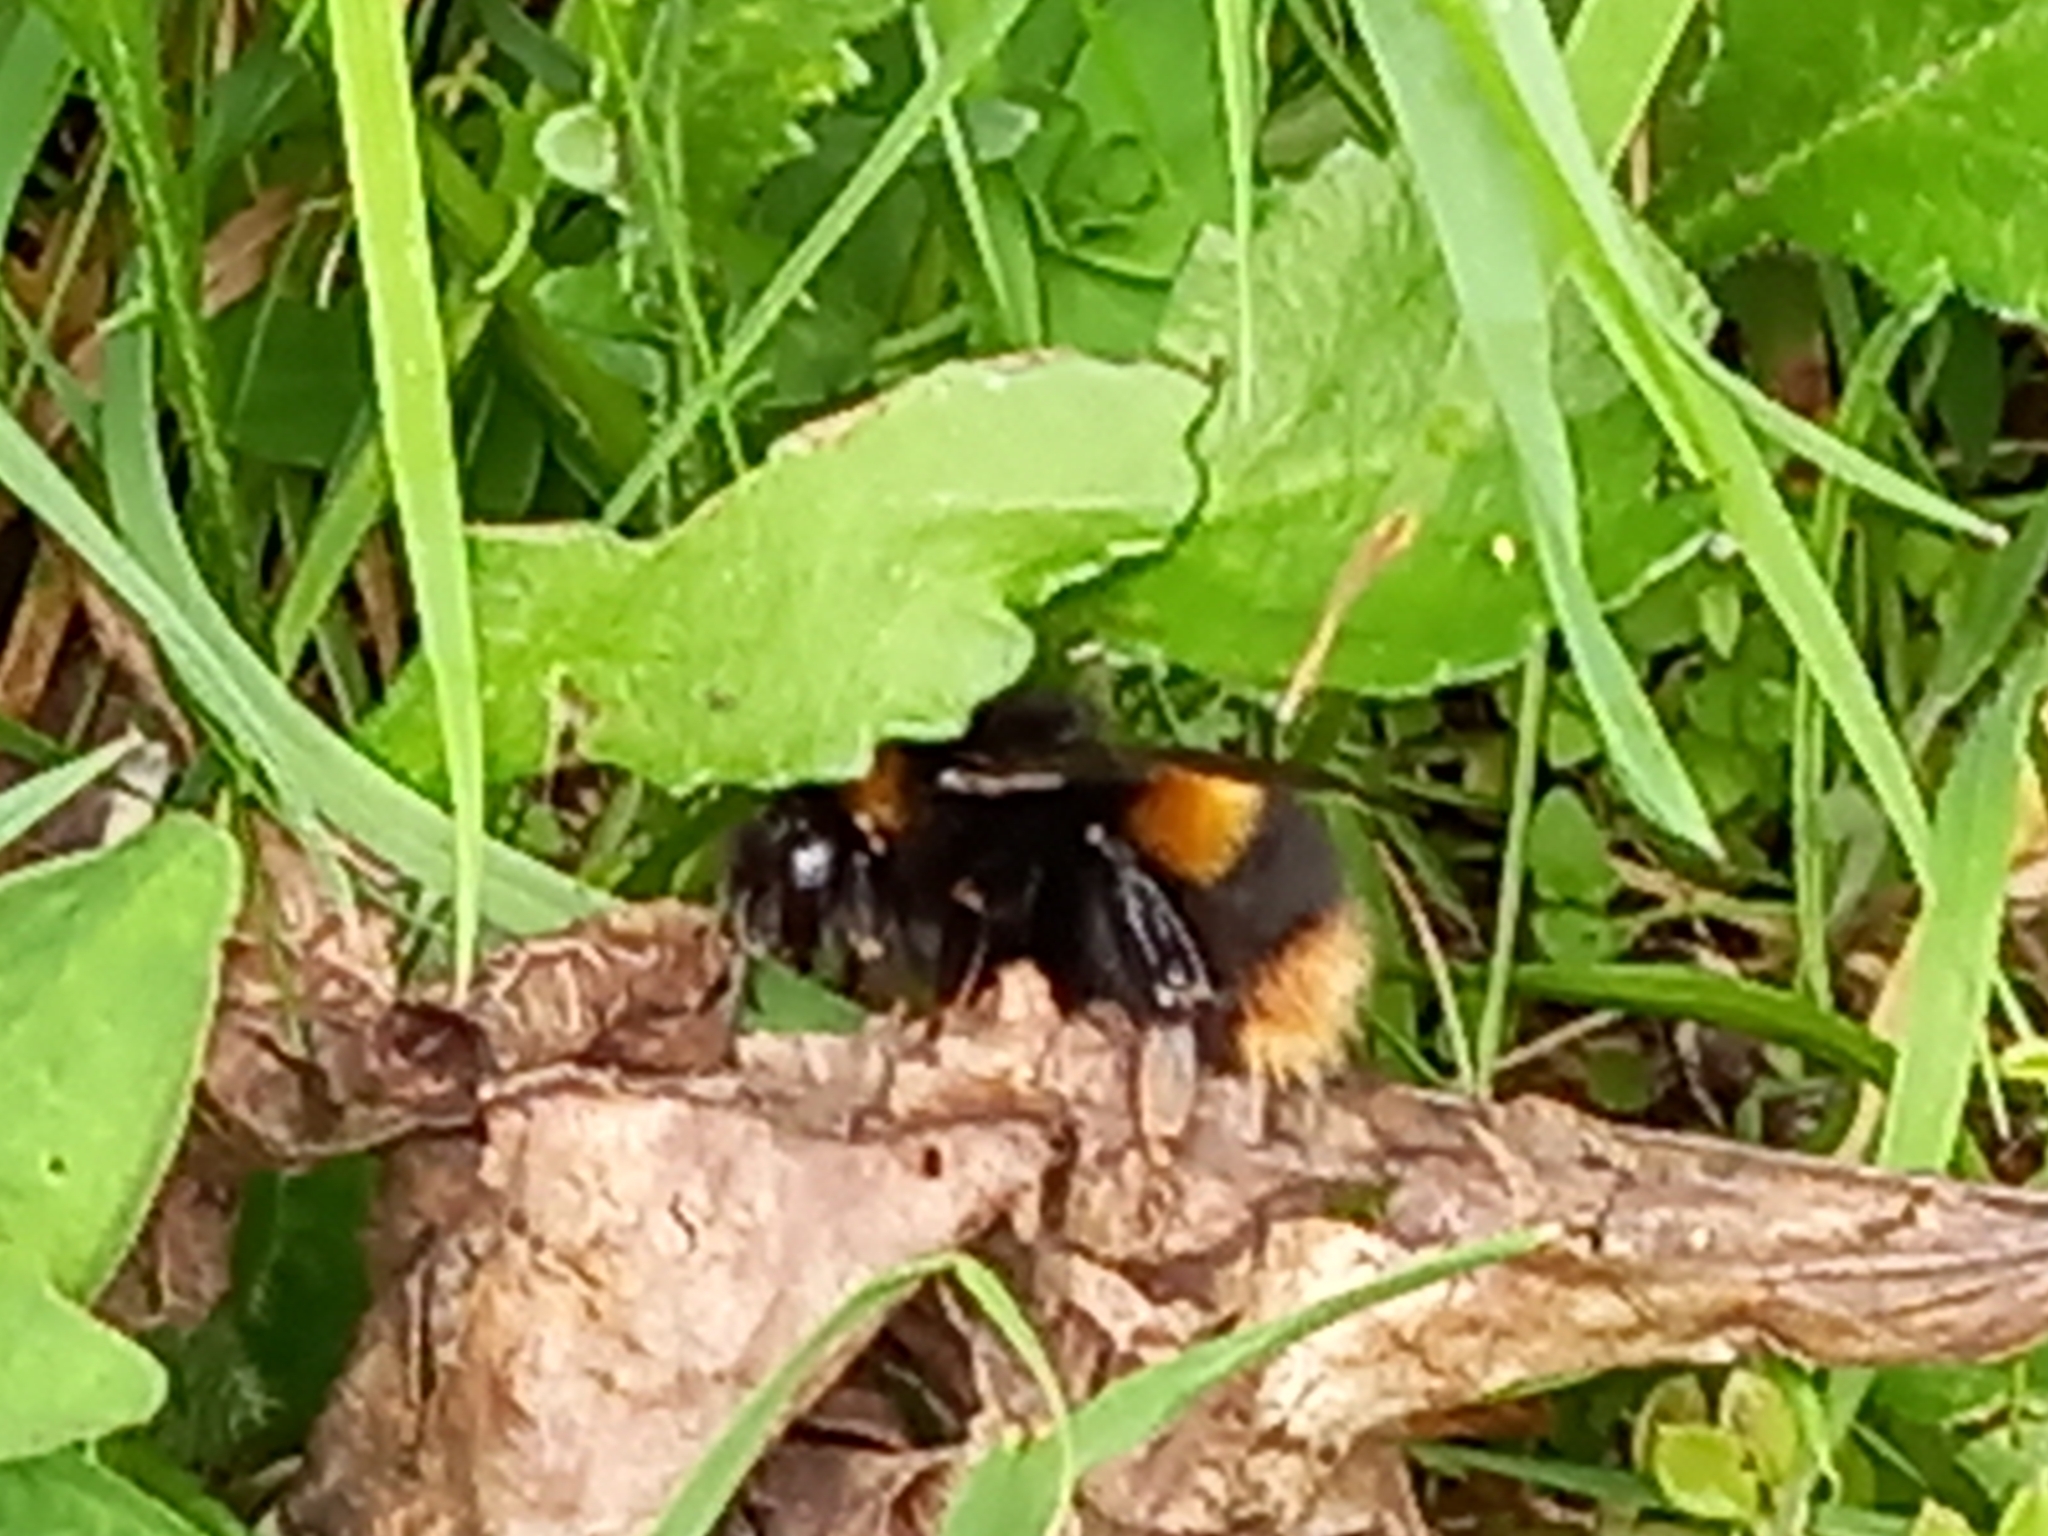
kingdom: Animalia
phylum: Arthropoda
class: Insecta
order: Hymenoptera
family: Apidae
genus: Bombus
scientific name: Bombus terrestris
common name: Buff-tailed bumblebee
